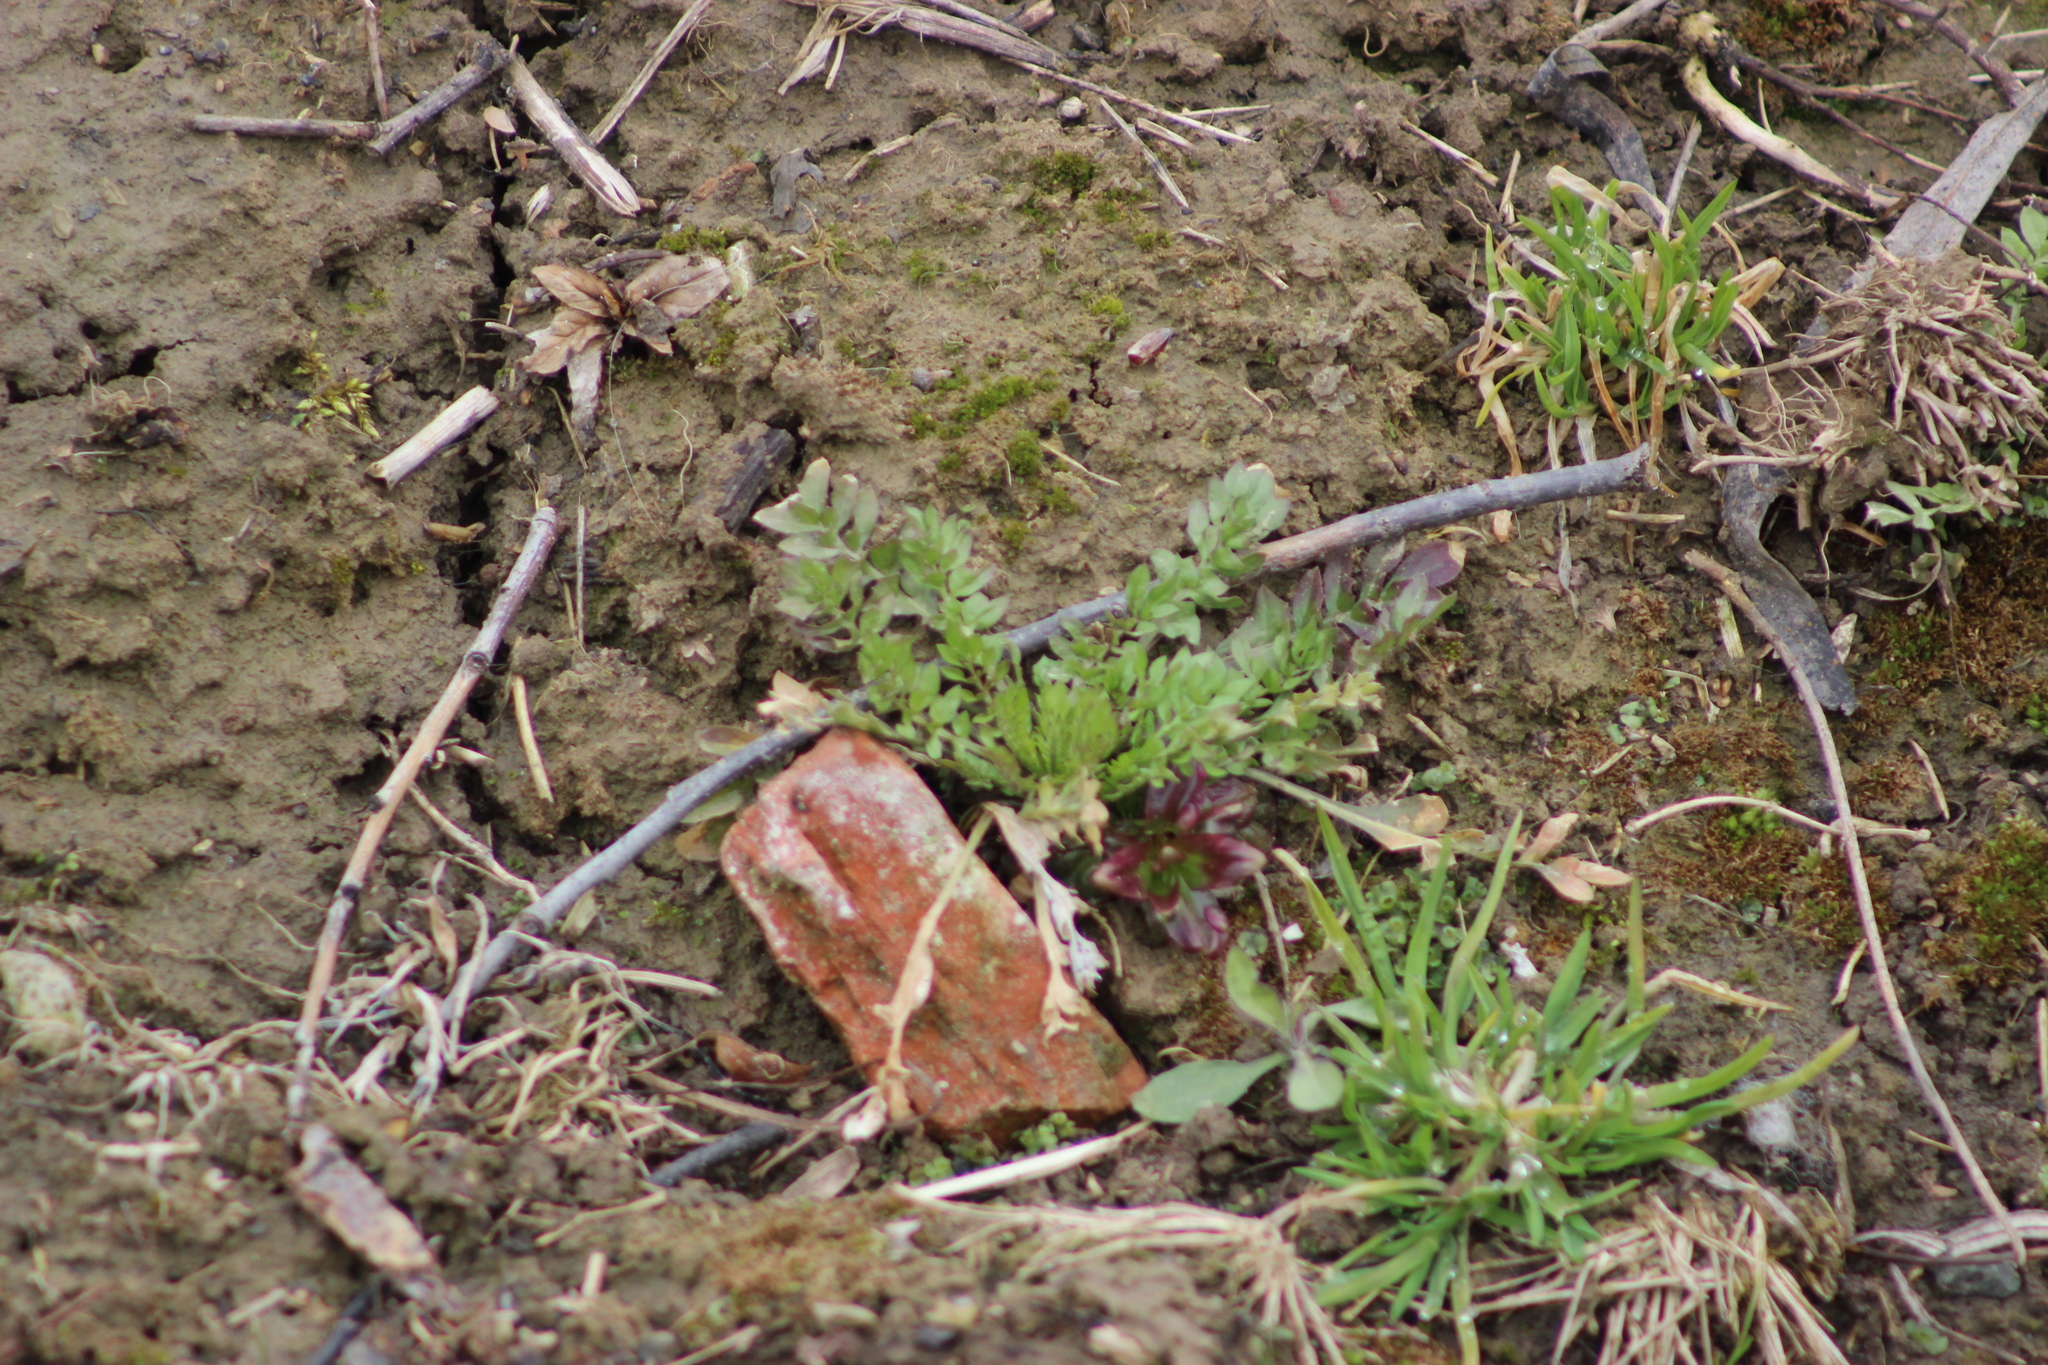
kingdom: Plantae
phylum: Tracheophyta
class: Magnoliopsida
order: Brassicales
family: Brassicaceae
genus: Capsella
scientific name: Capsella bursa-pastoris
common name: Shepherd's purse
